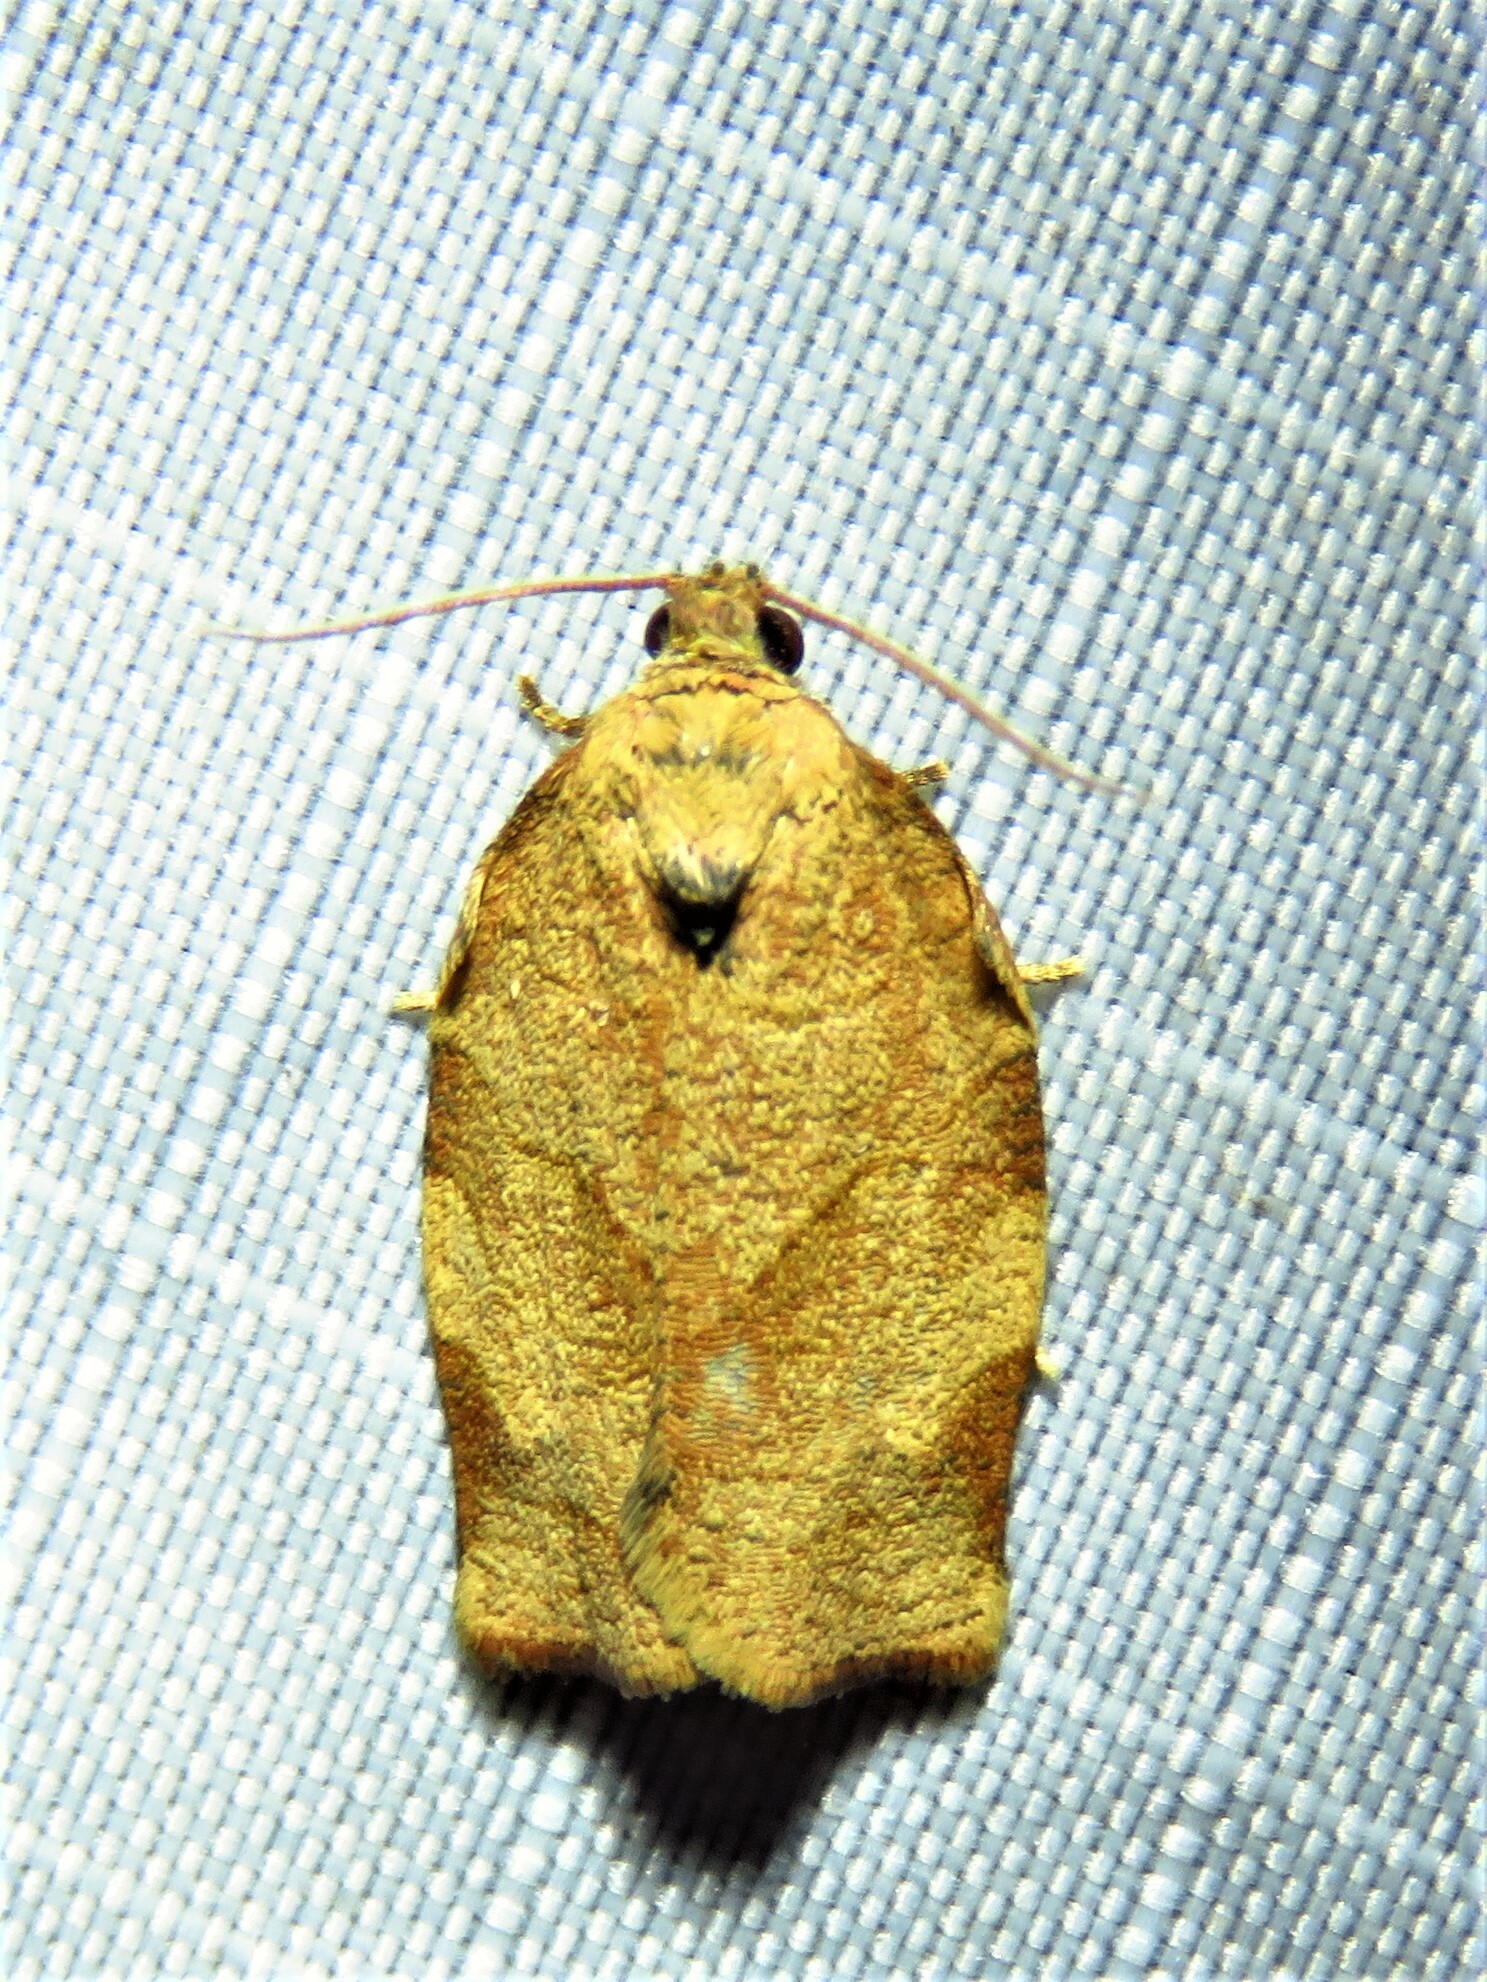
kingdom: Animalia
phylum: Arthropoda
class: Insecta
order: Lepidoptera
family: Tortricidae
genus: Choristoneura
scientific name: Choristoneura rosaceana
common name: Oblique-banded leafroller moth
